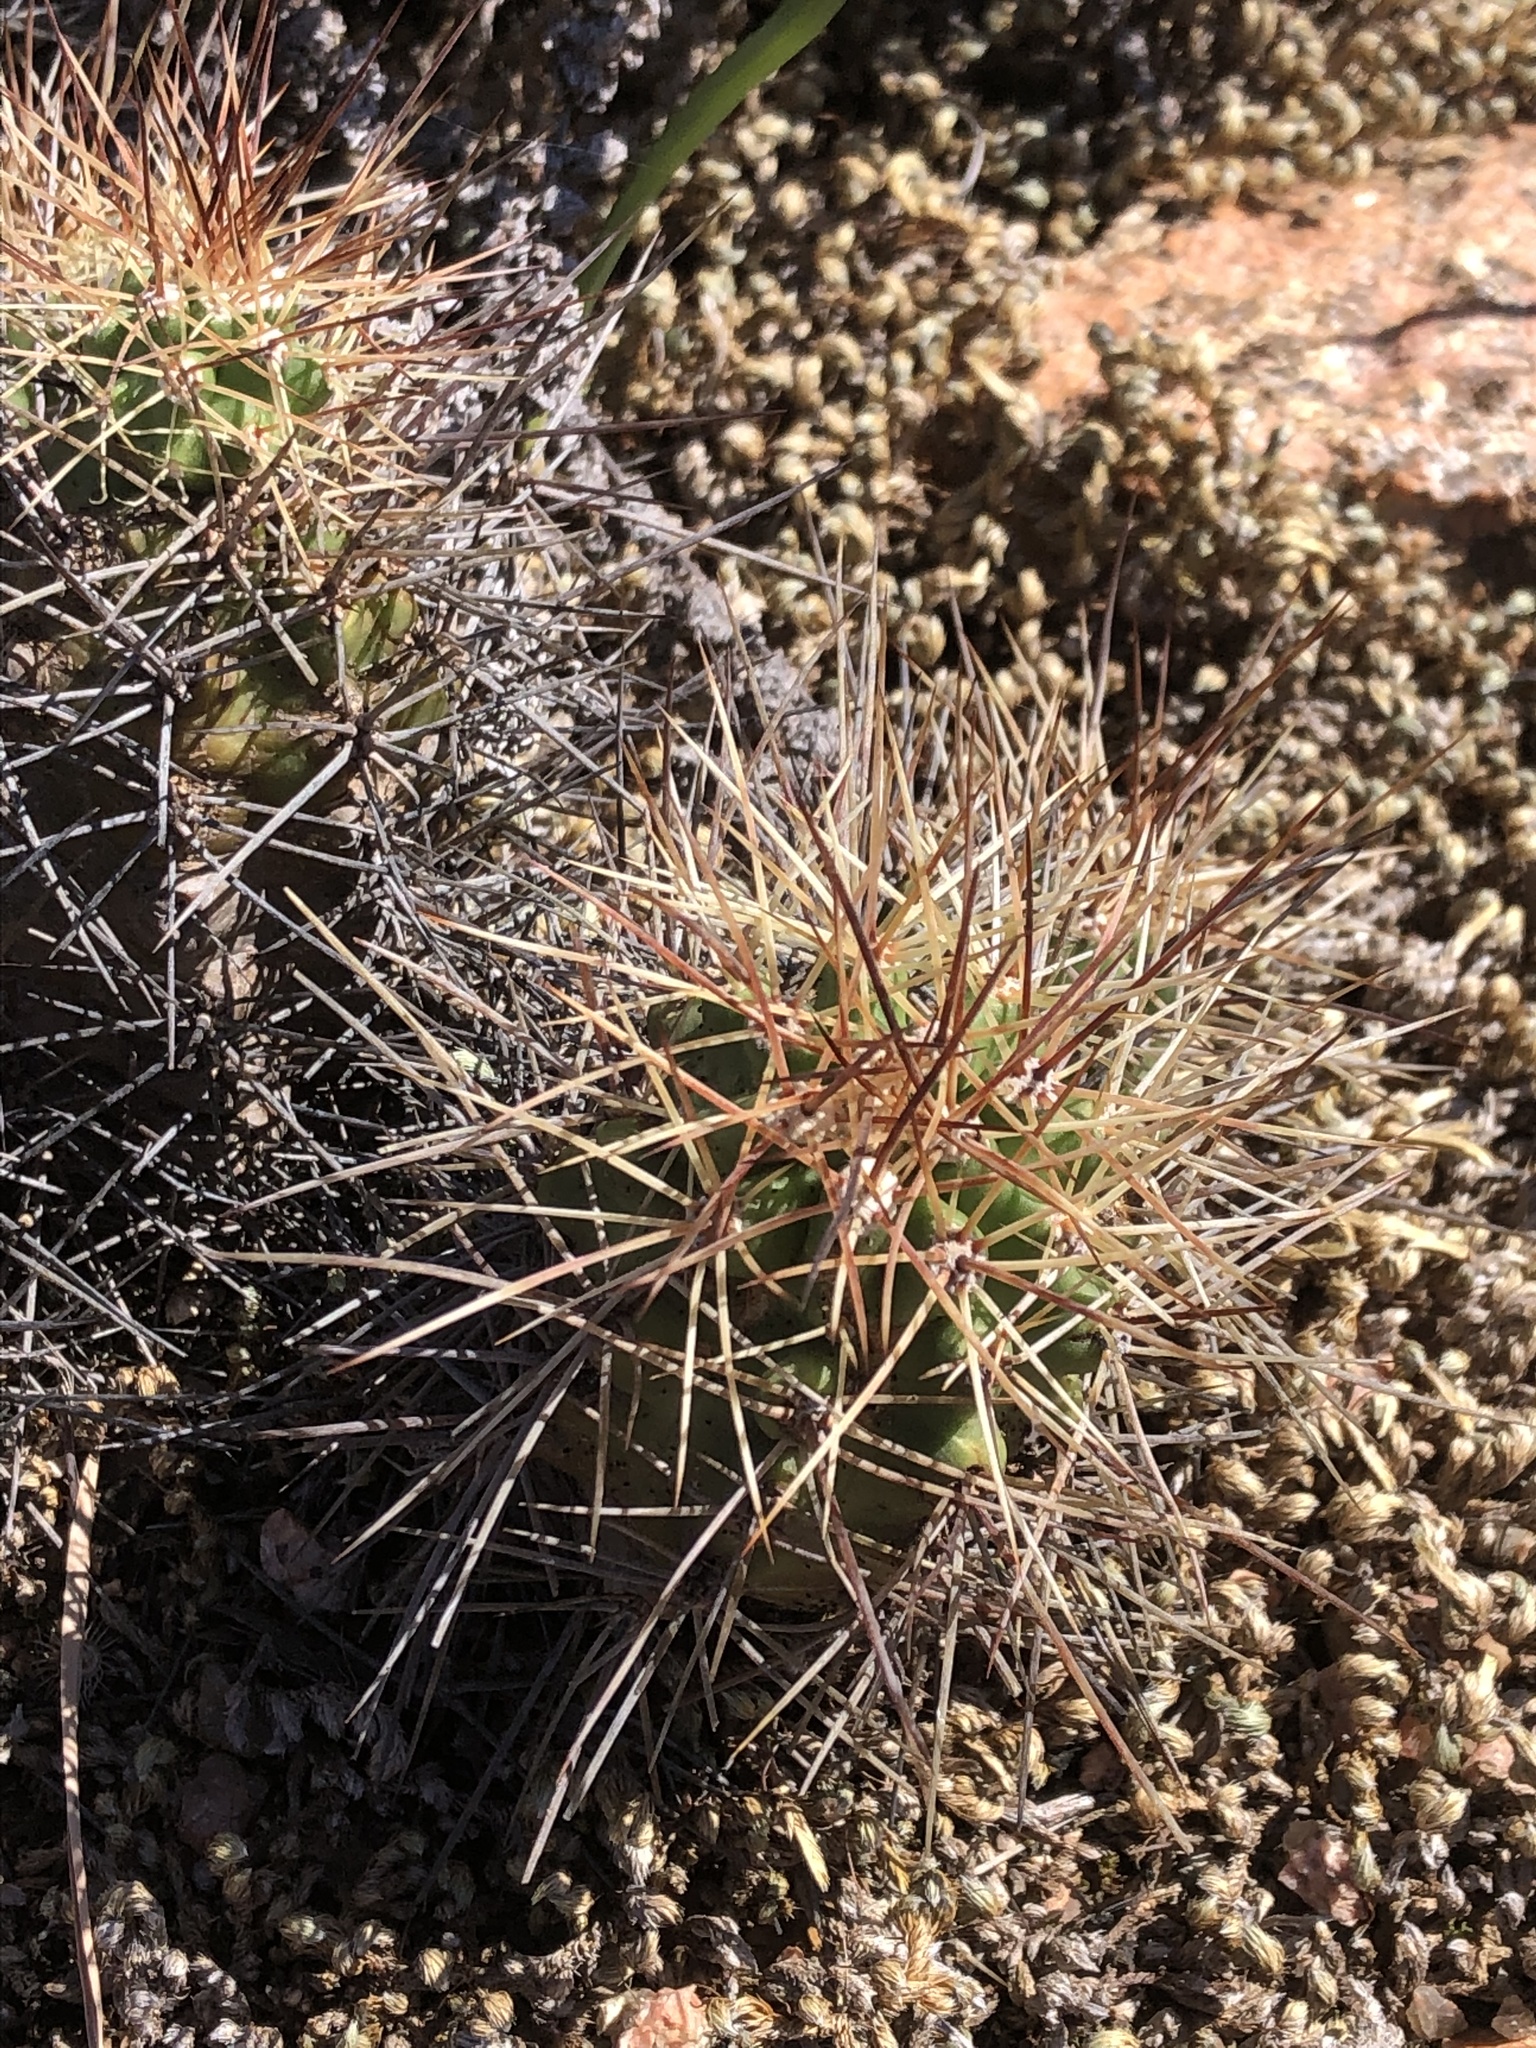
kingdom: Plantae
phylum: Tracheophyta
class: Magnoliopsida
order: Caryophyllales
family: Cactaceae
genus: Echinocereus
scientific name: Echinocereus coccineus
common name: Scarlet hedgehog cactus
